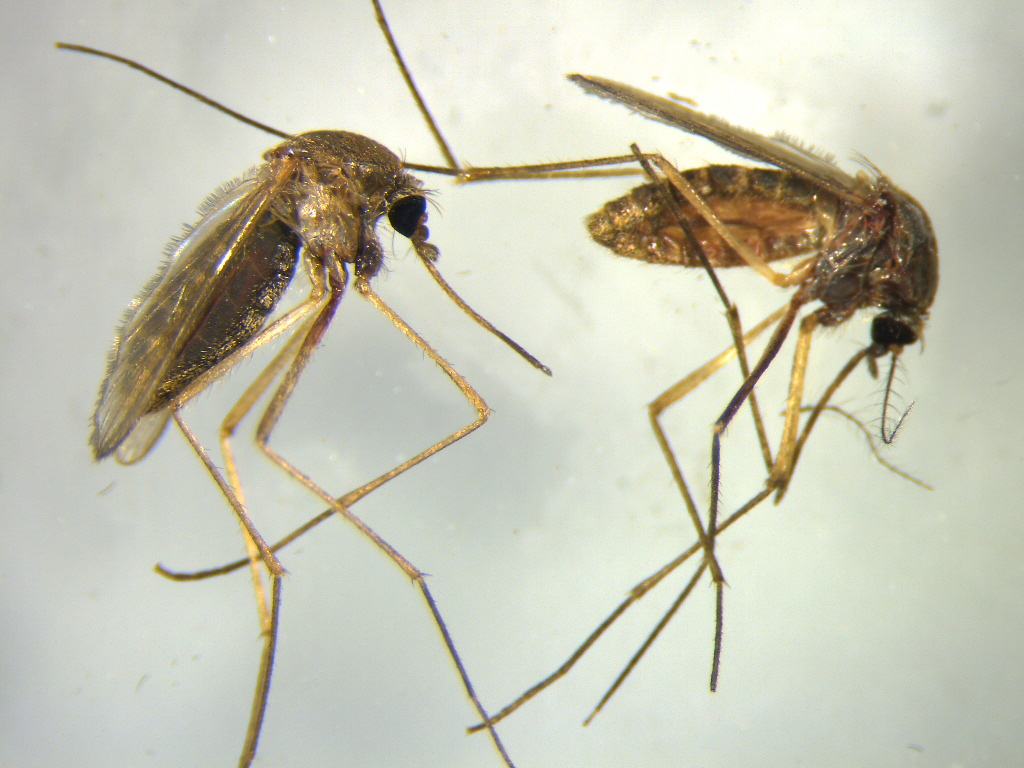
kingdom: Animalia
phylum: Arthropoda
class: Insecta
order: Diptera
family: Culicidae
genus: Culex
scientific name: Culex quinquefasciatus
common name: Southern house mosquito
